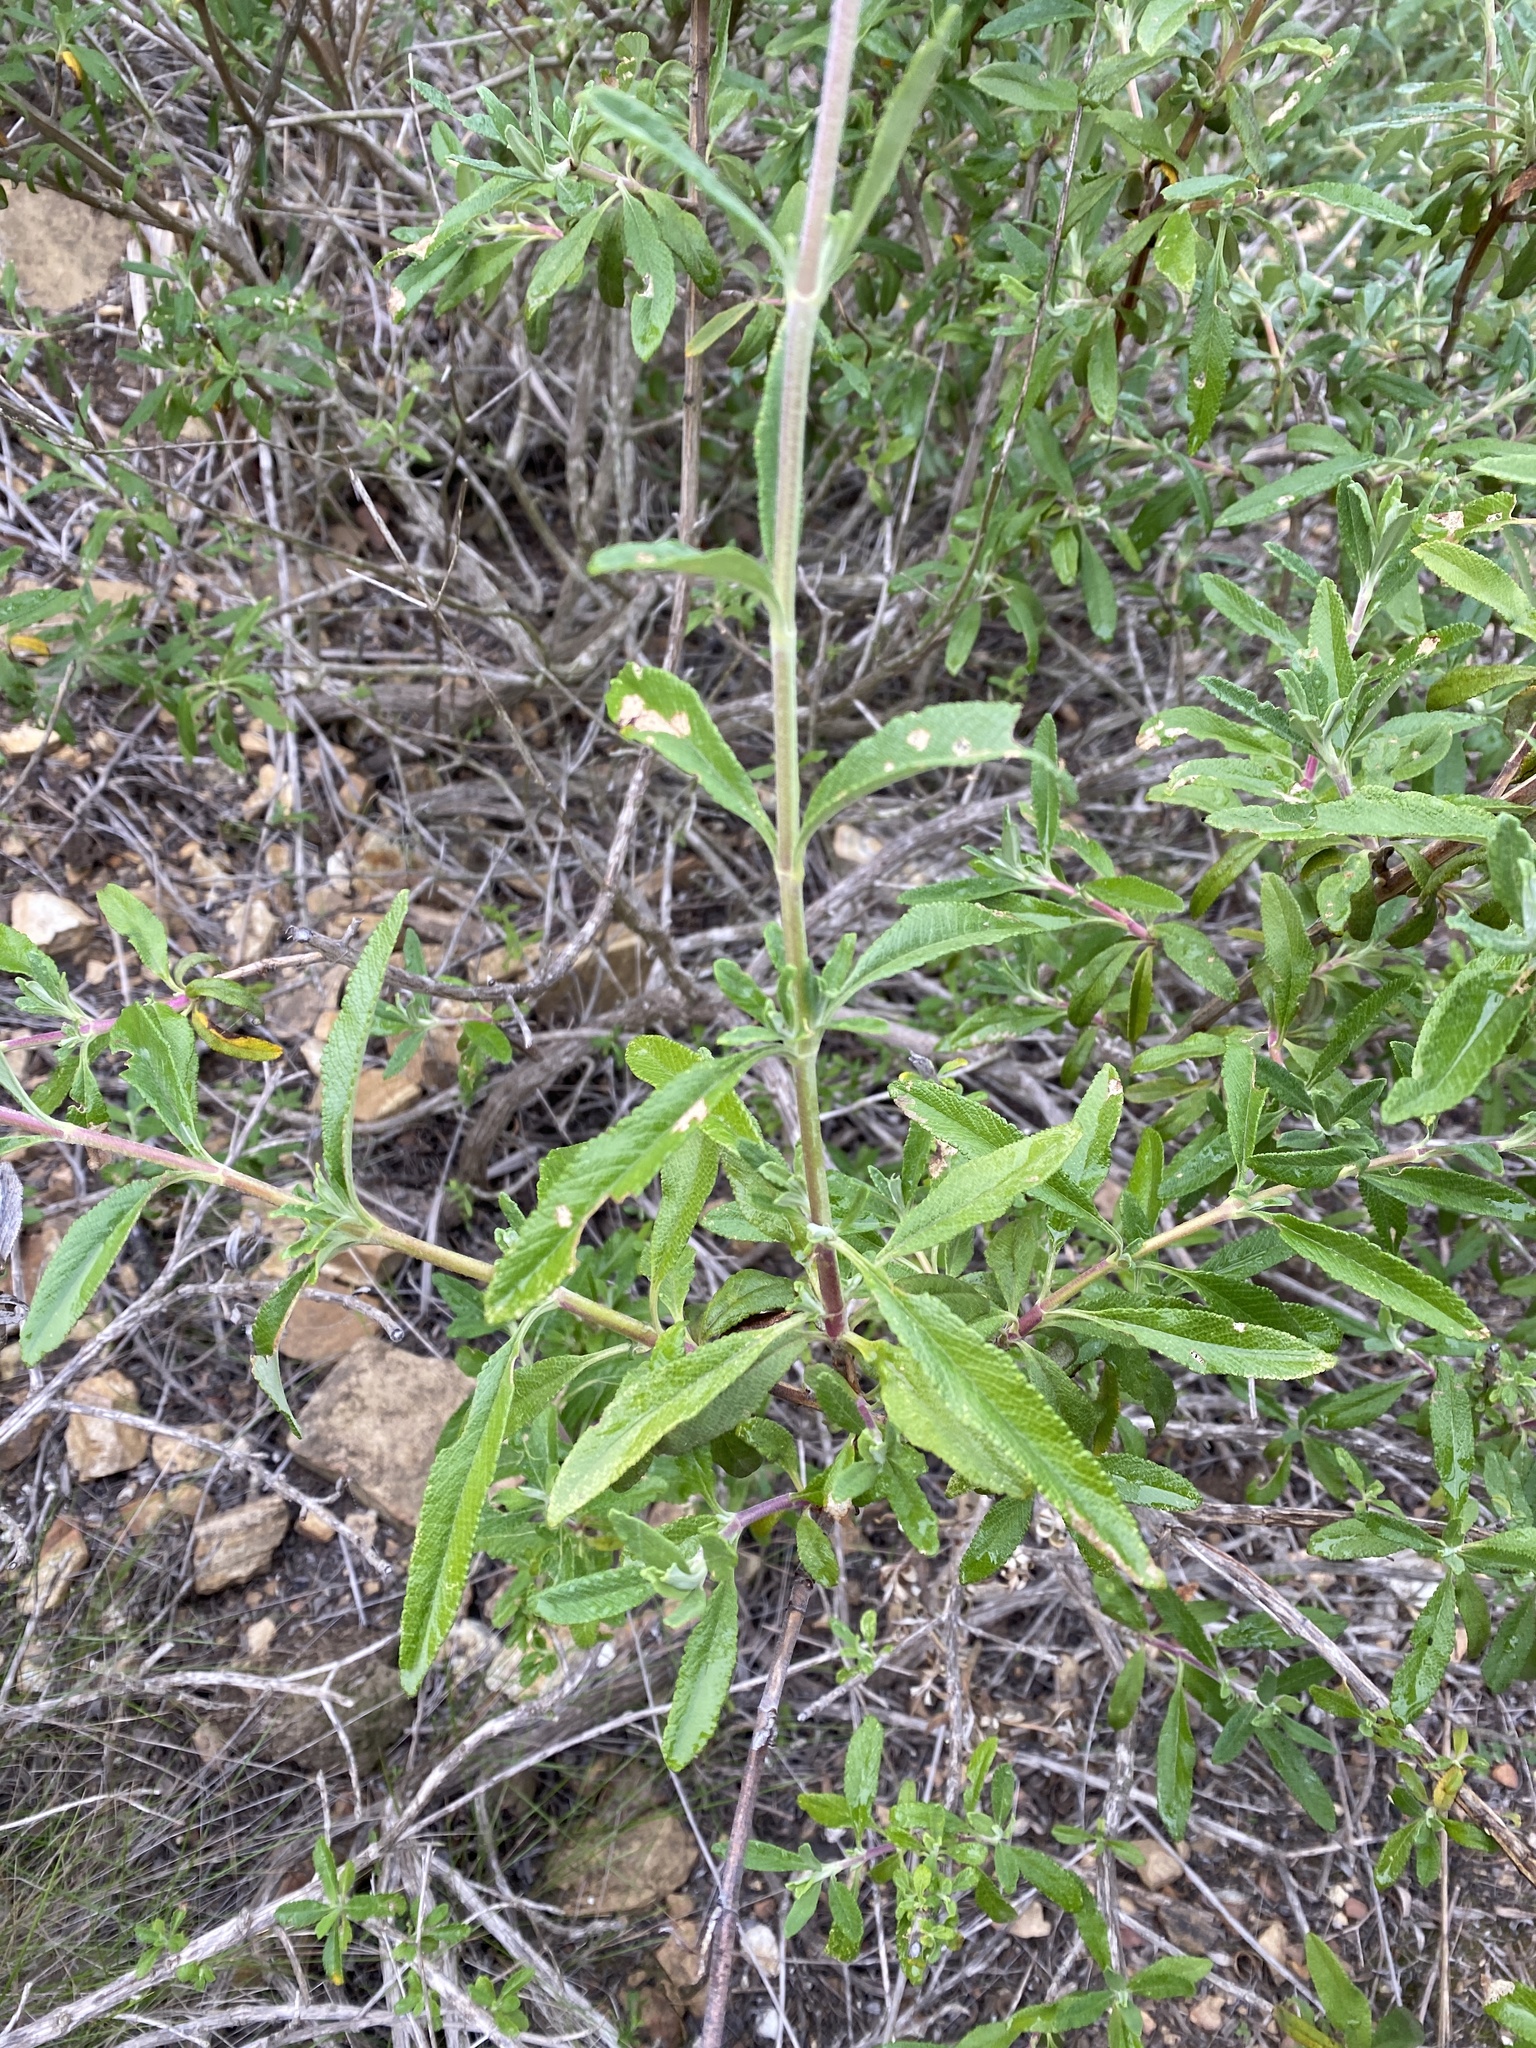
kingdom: Plantae
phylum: Tracheophyta
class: Magnoliopsida
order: Lamiales
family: Lamiaceae
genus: Salvia
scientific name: Salvia mellifera
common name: Black sage
